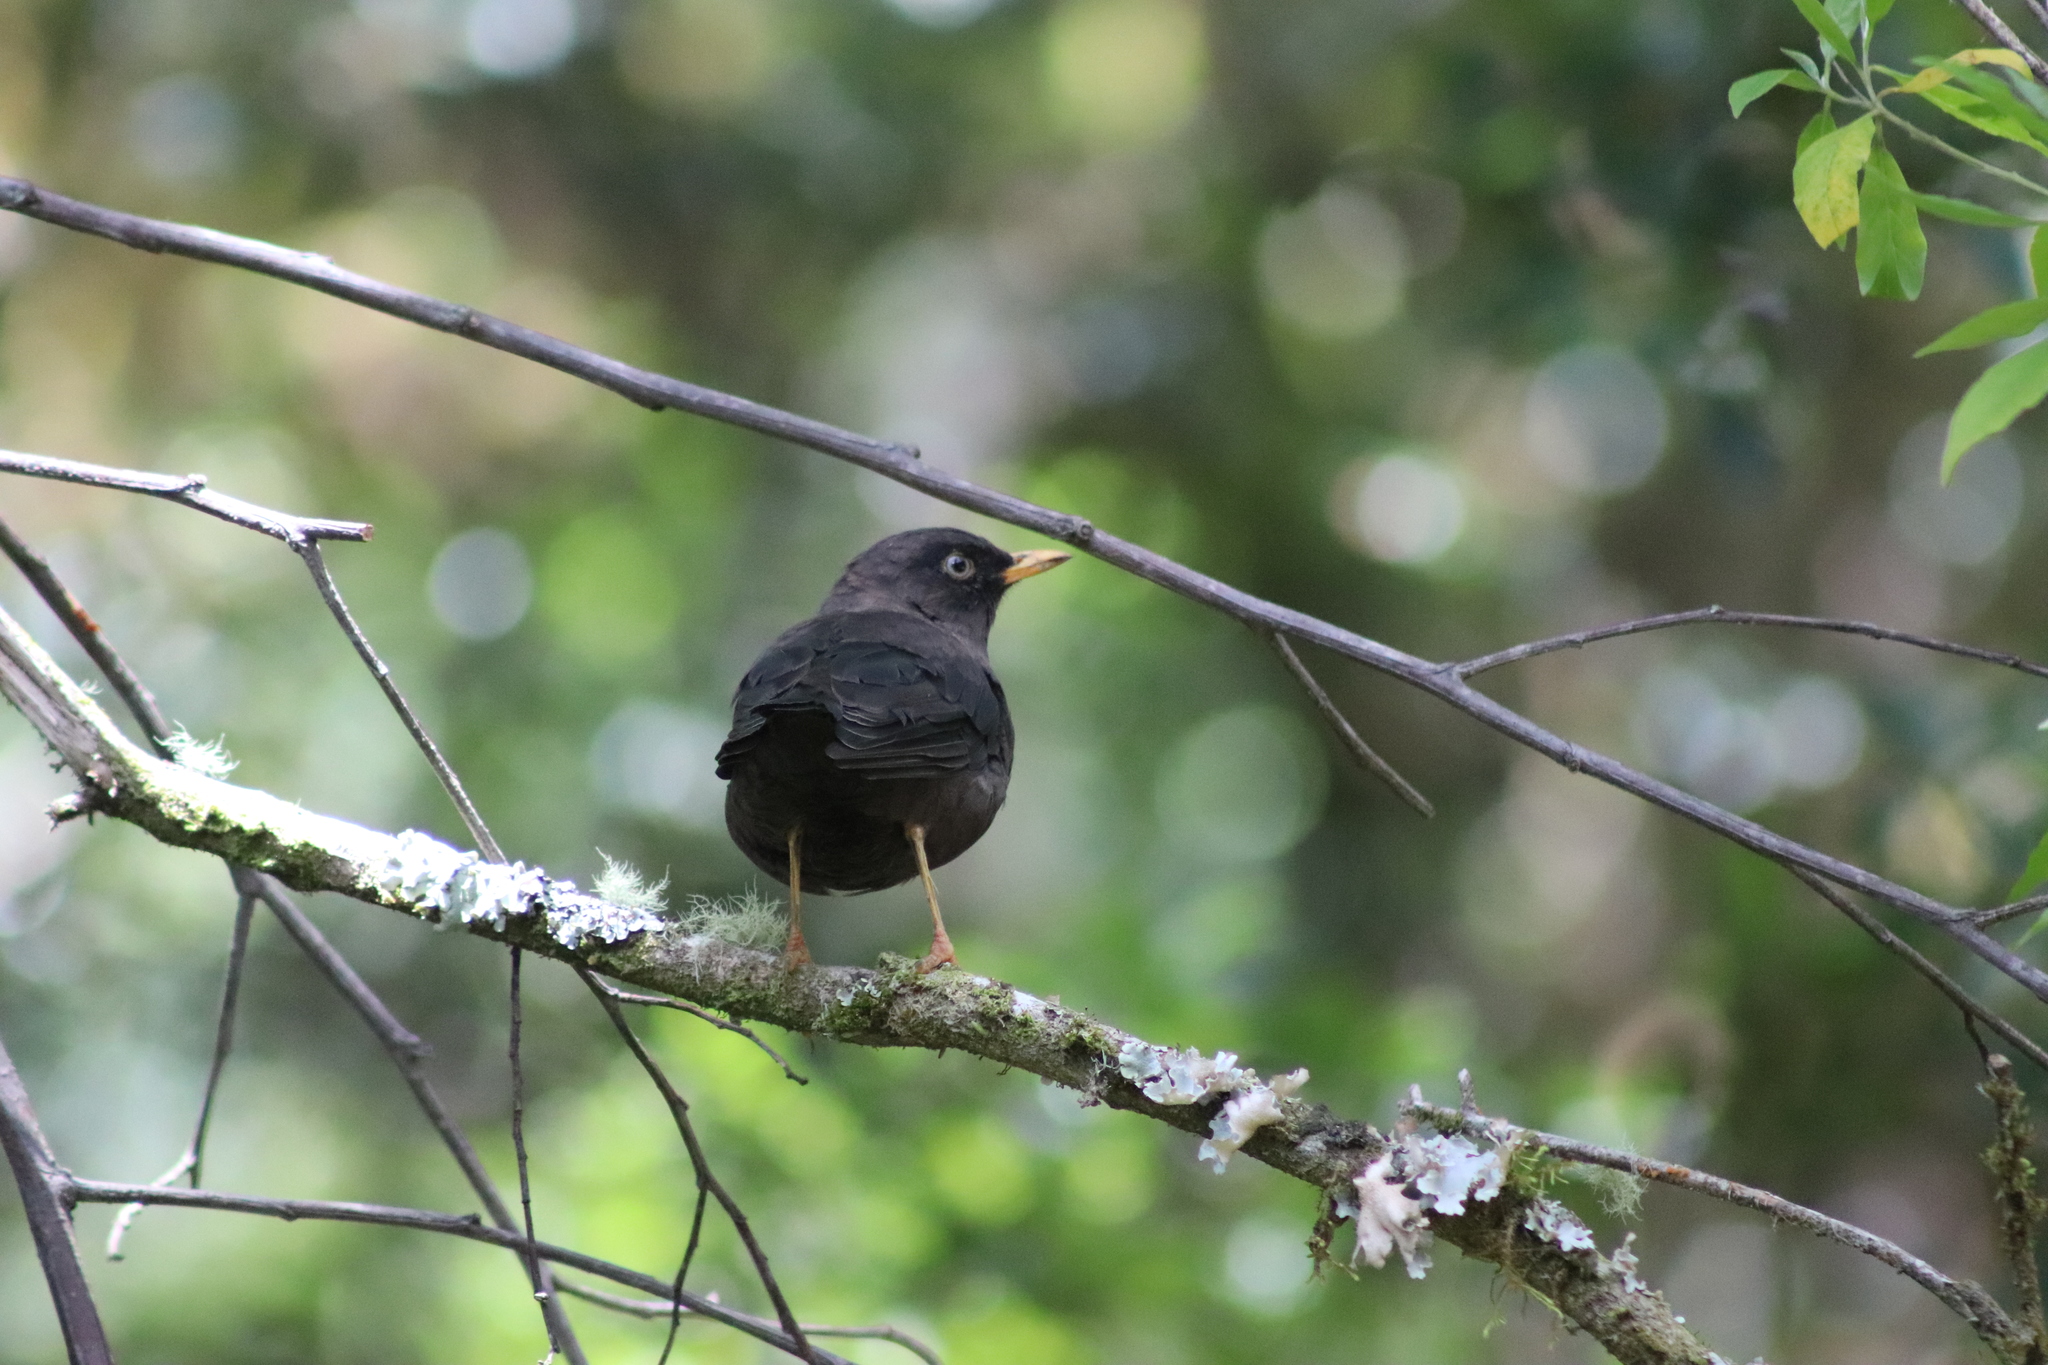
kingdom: Animalia
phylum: Chordata
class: Aves
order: Passeriformes
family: Turdidae
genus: Turdus
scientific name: Turdus nigrescens
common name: Sooty thrush
